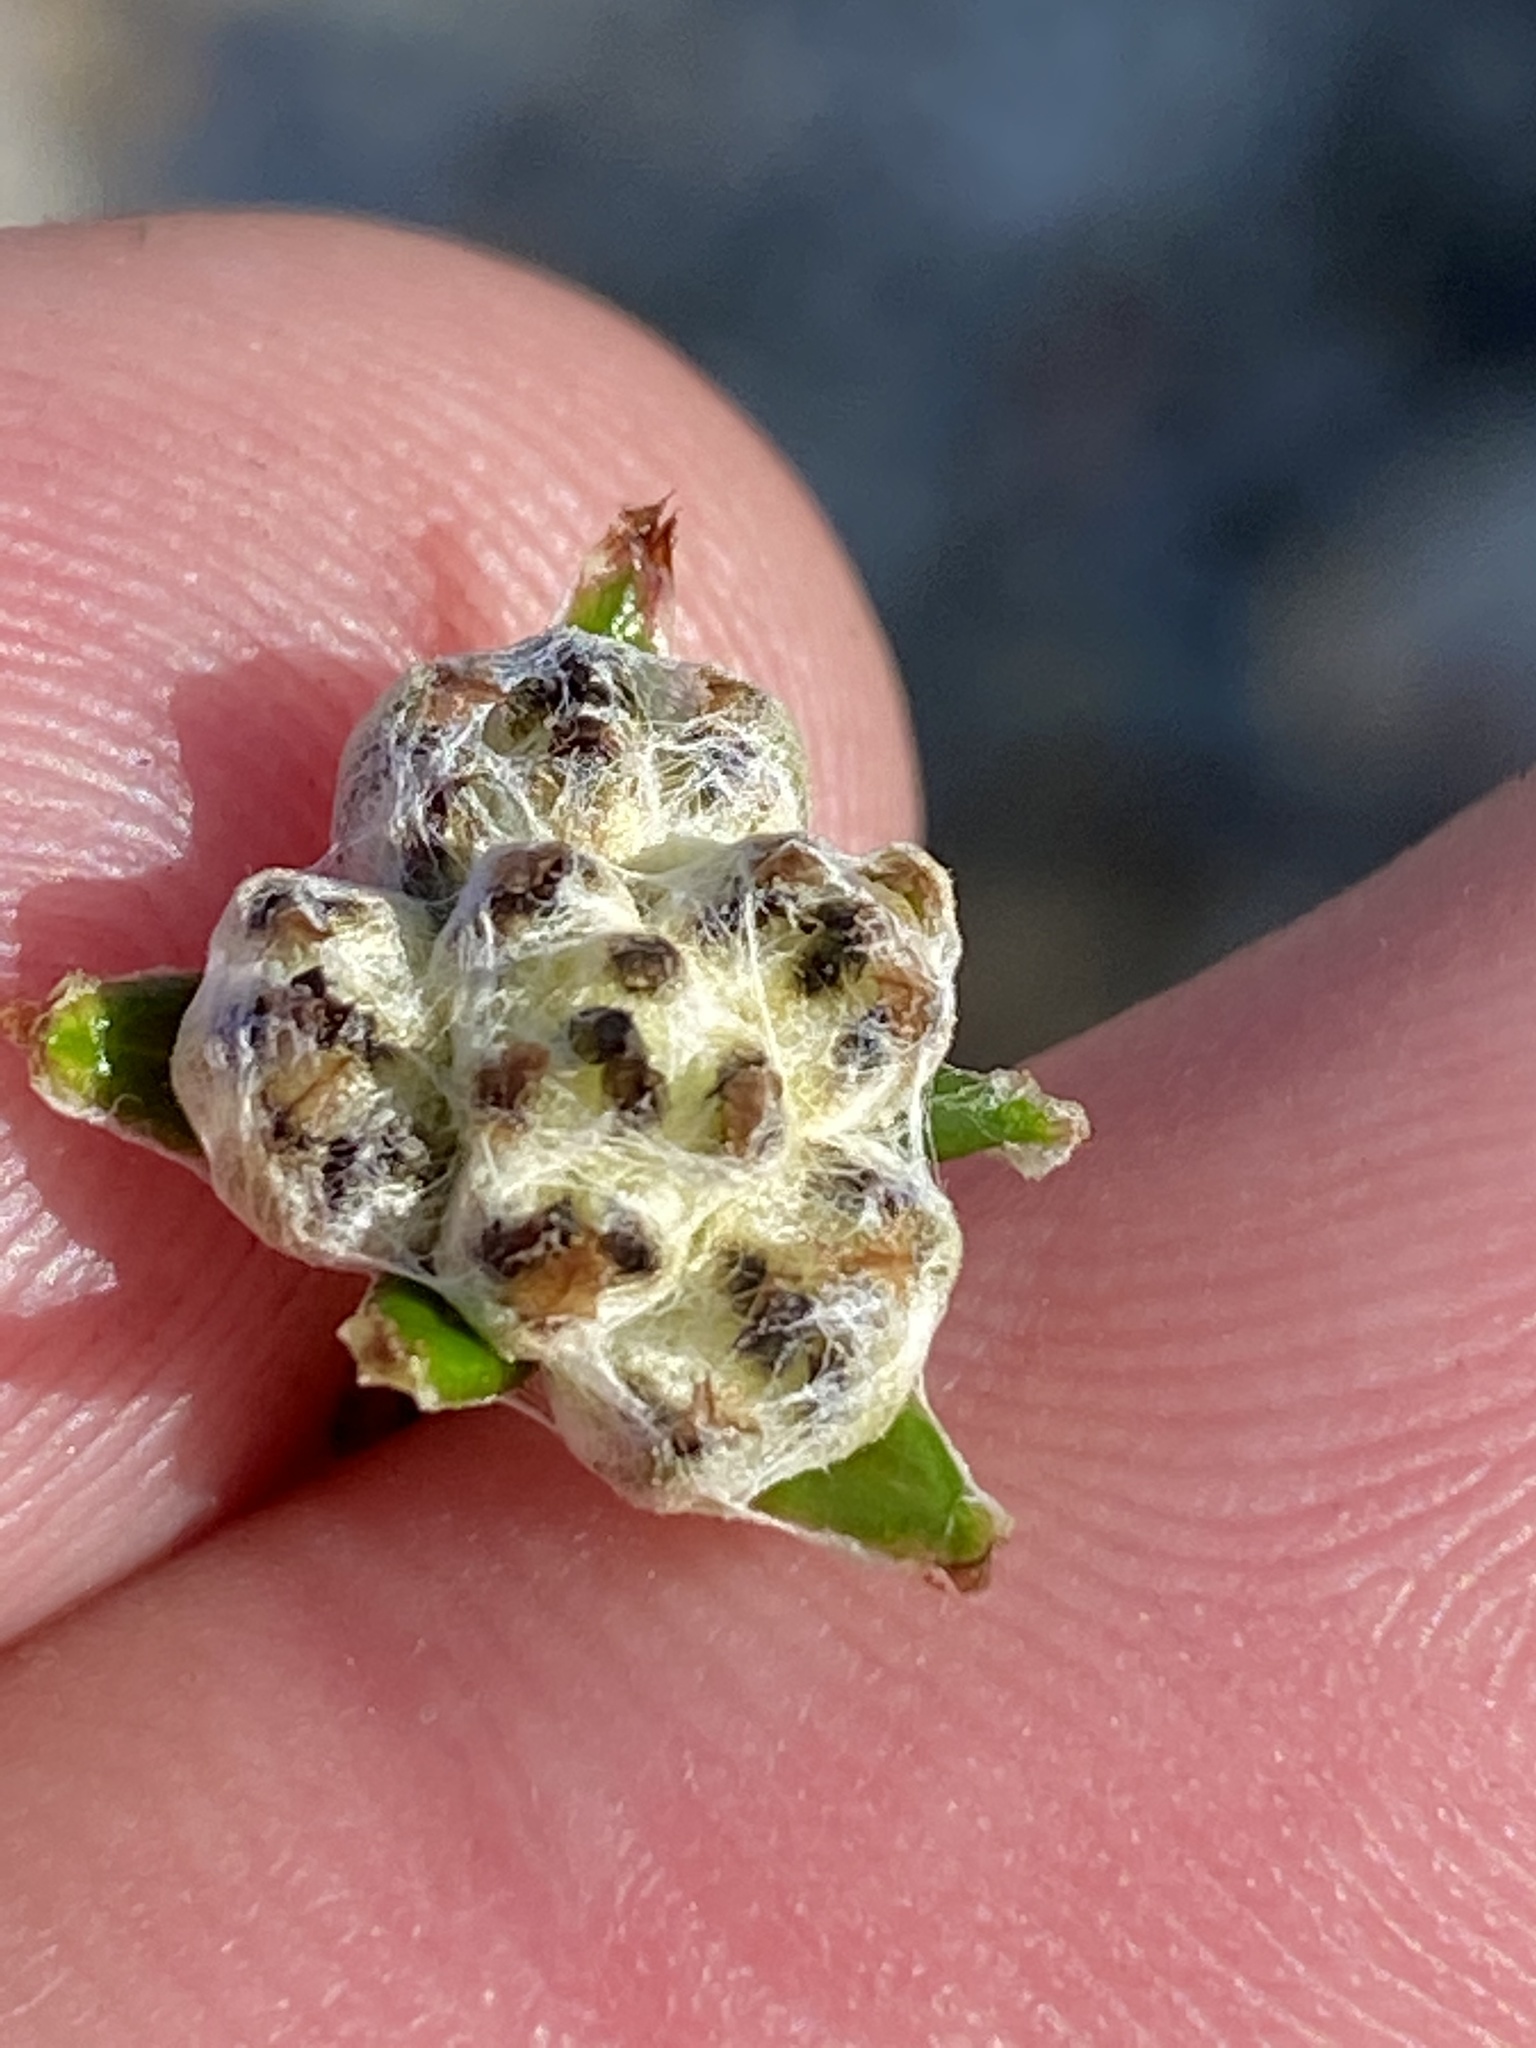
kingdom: Plantae
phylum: Tracheophyta
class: Magnoliopsida
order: Asterales
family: Asteraceae
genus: Anaxeton
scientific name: Anaxeton asperum
